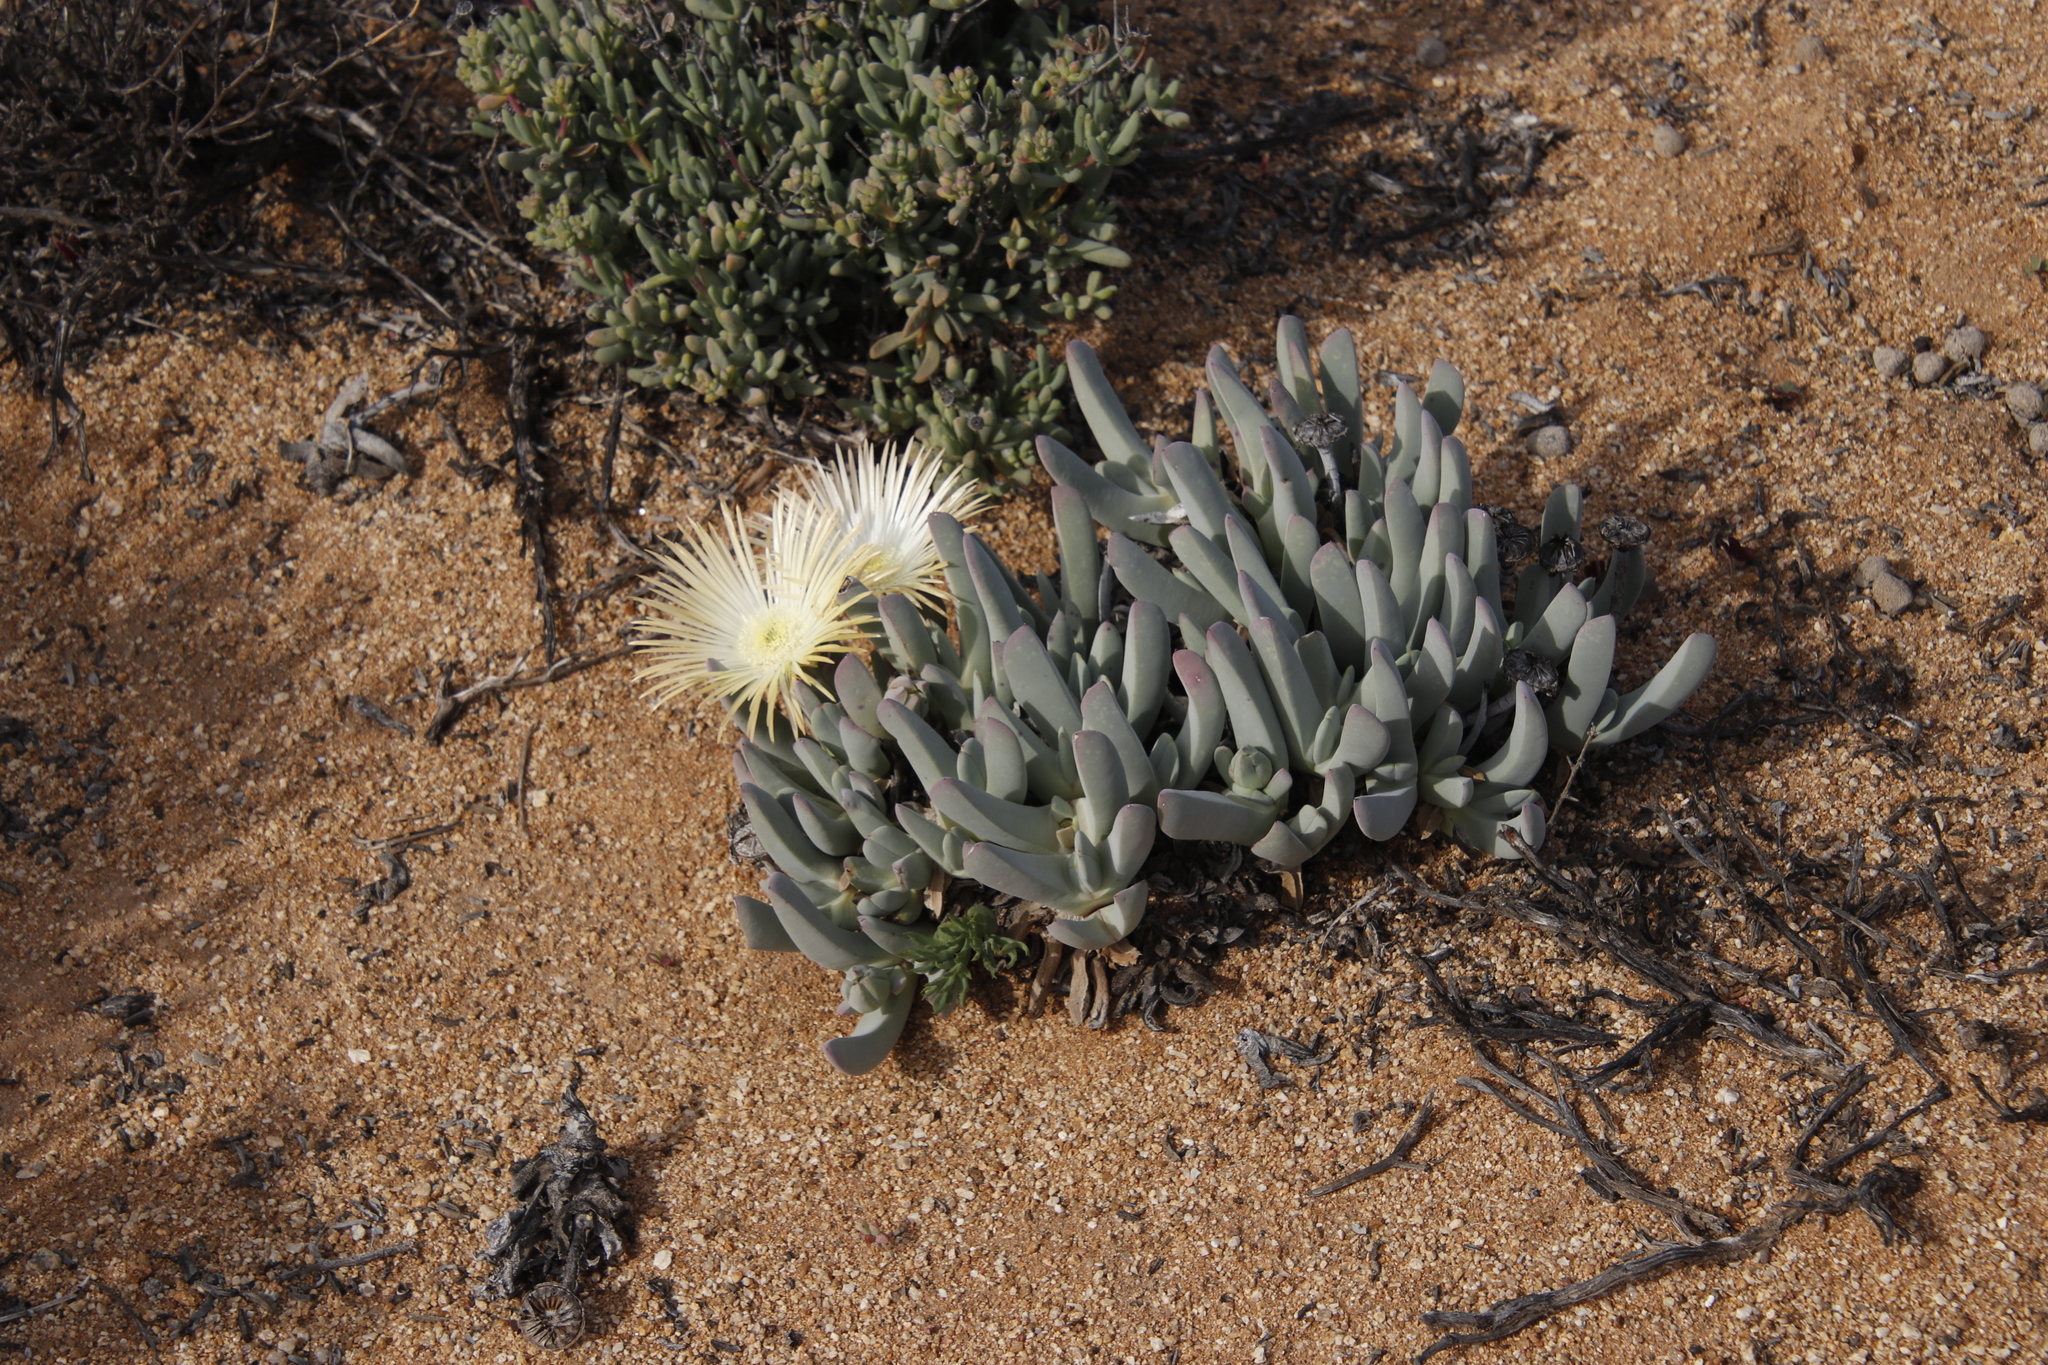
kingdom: Plantae
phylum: Tracheophyta
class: Magnoliopsida
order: Caryophyllales
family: Aizoaceae
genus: Cheiridopsis
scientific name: Cheiridopsis denticulata
